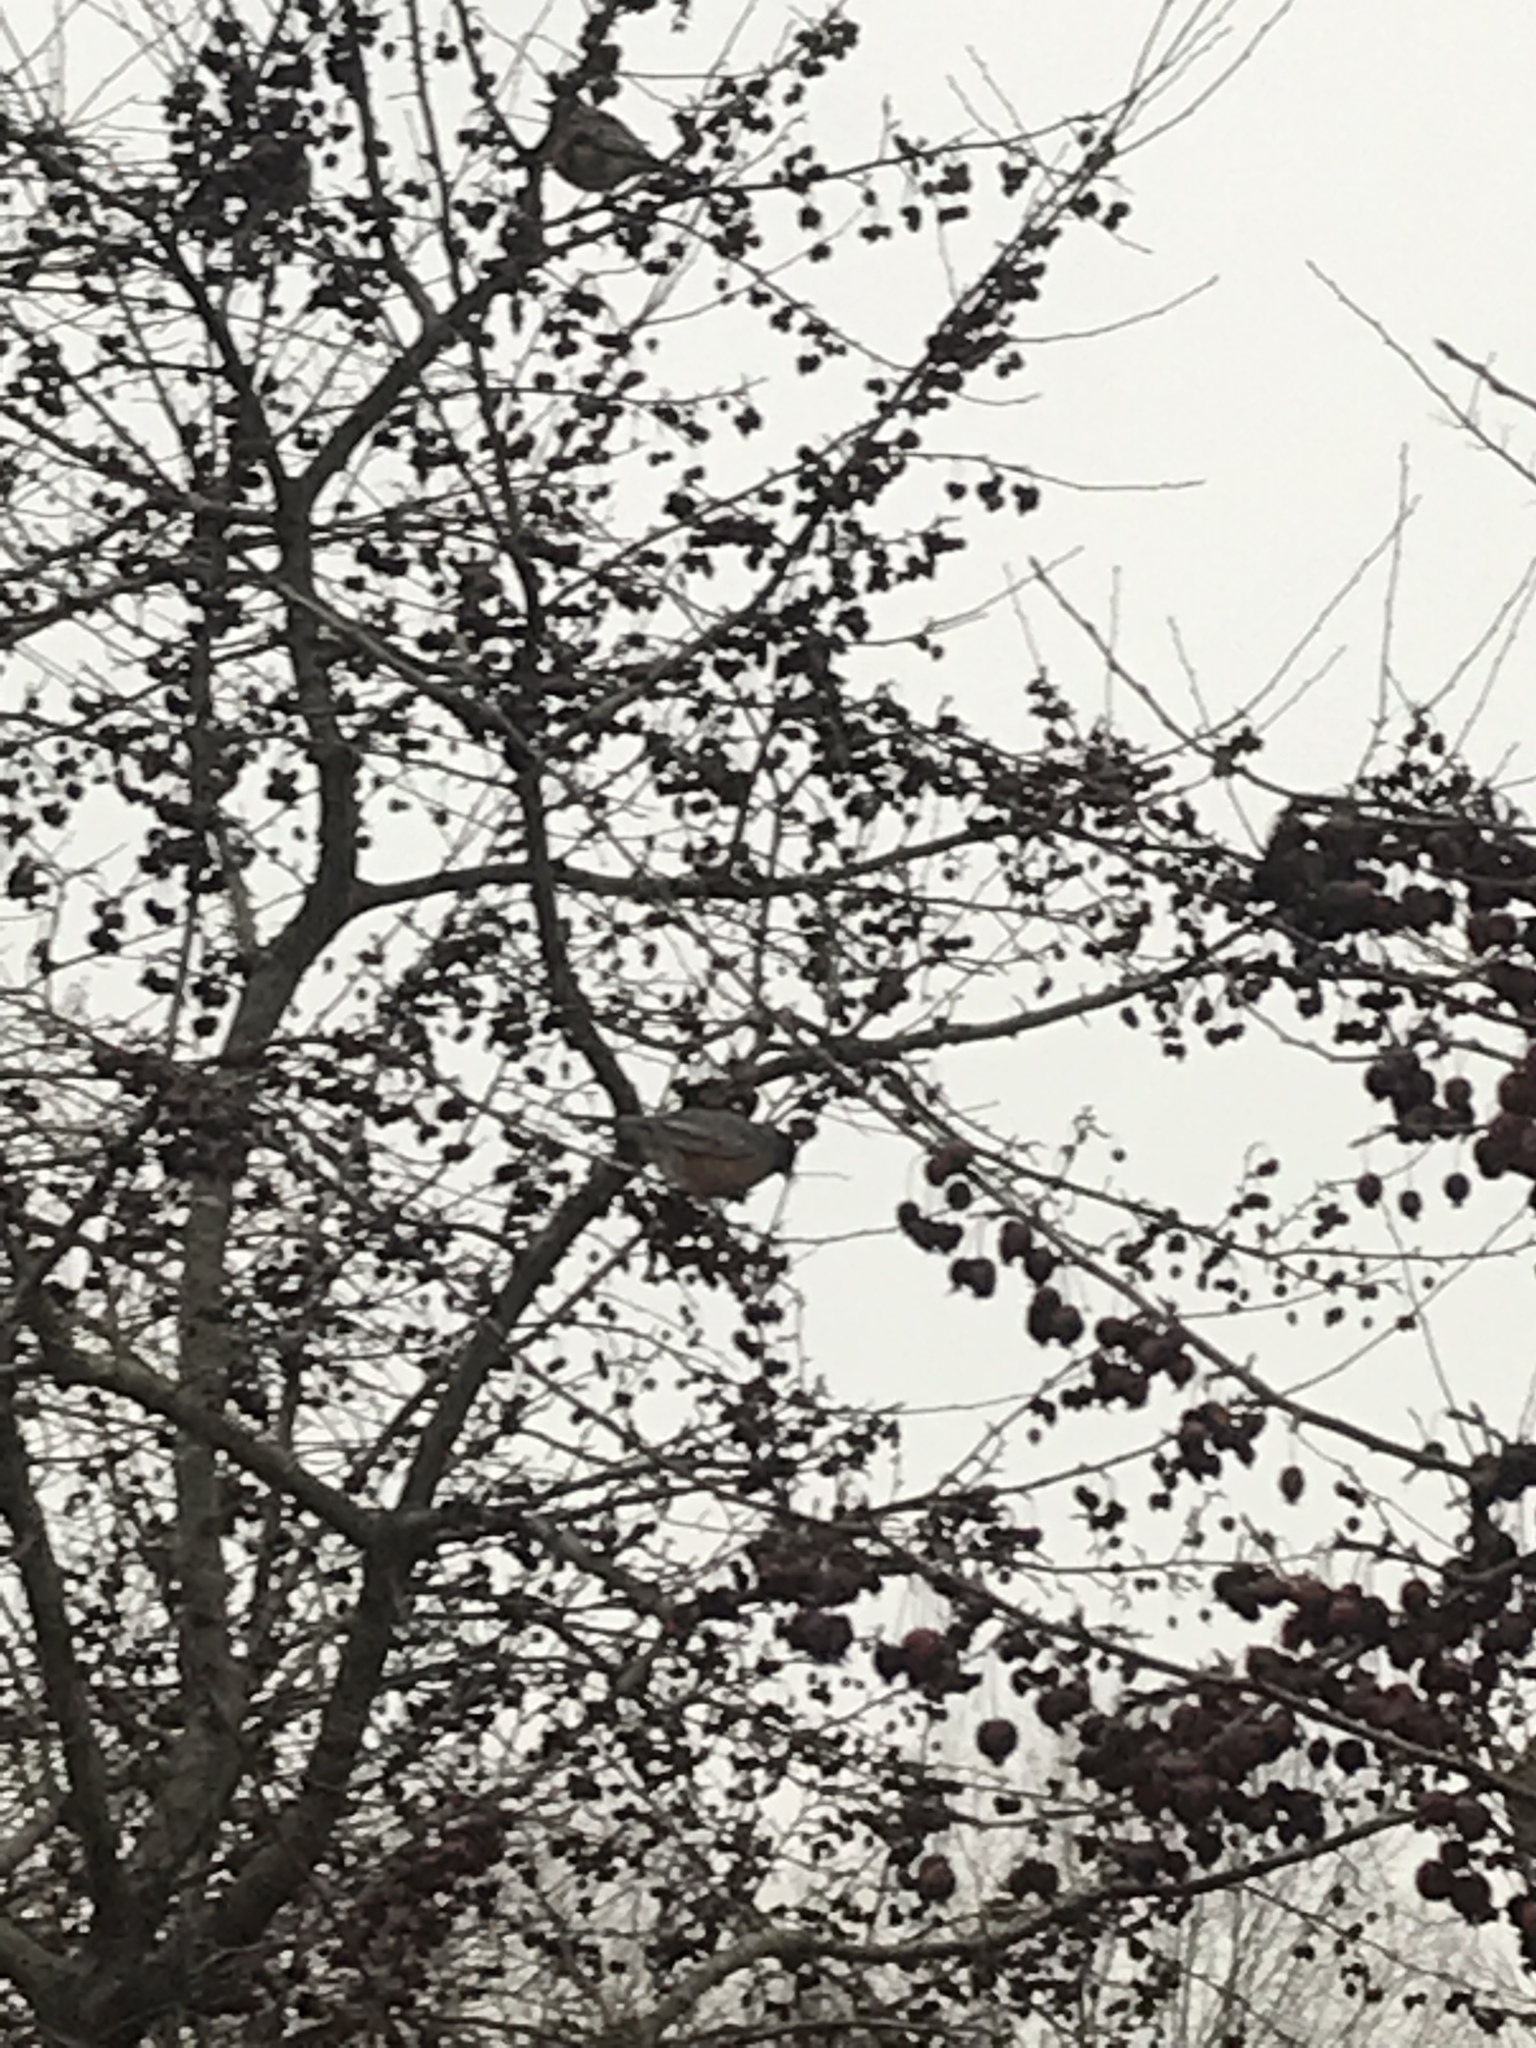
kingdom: Animalia
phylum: Chordata
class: Aves
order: Passeriformes
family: Turdidae
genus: Turdus
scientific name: Turdus migratorius
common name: American robin
